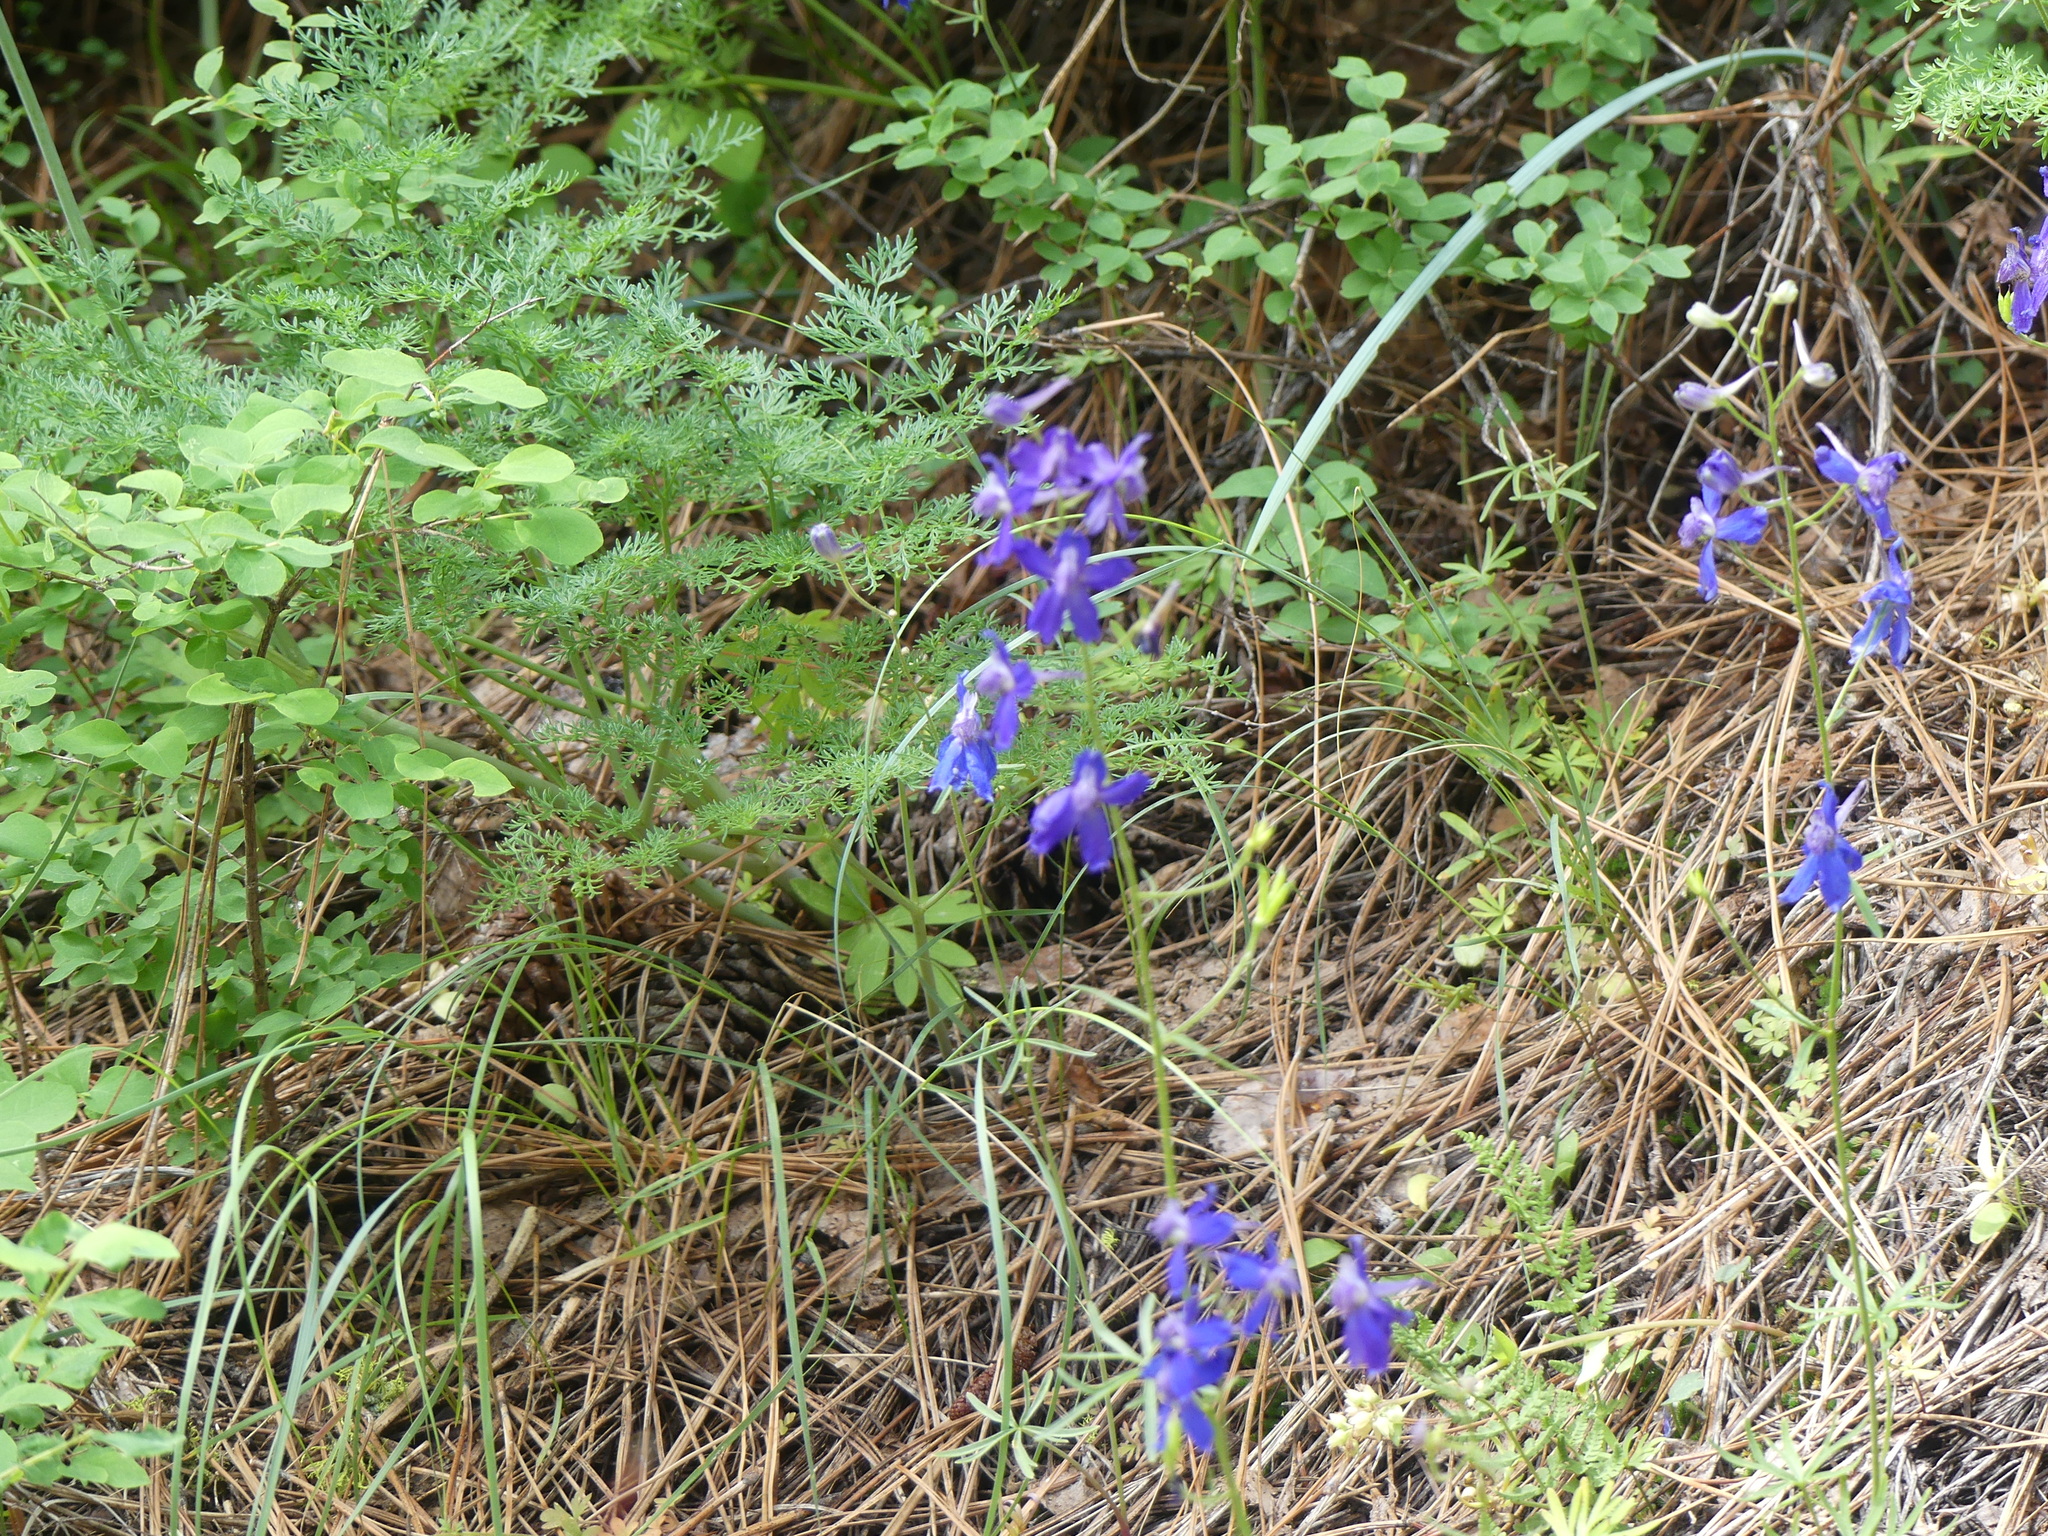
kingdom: Plantae
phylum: Tracheophyta
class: Magnoliopsida
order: Ranunculales
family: Ranunculaceae
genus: Delphinium
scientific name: Delphinium nuttallianum
